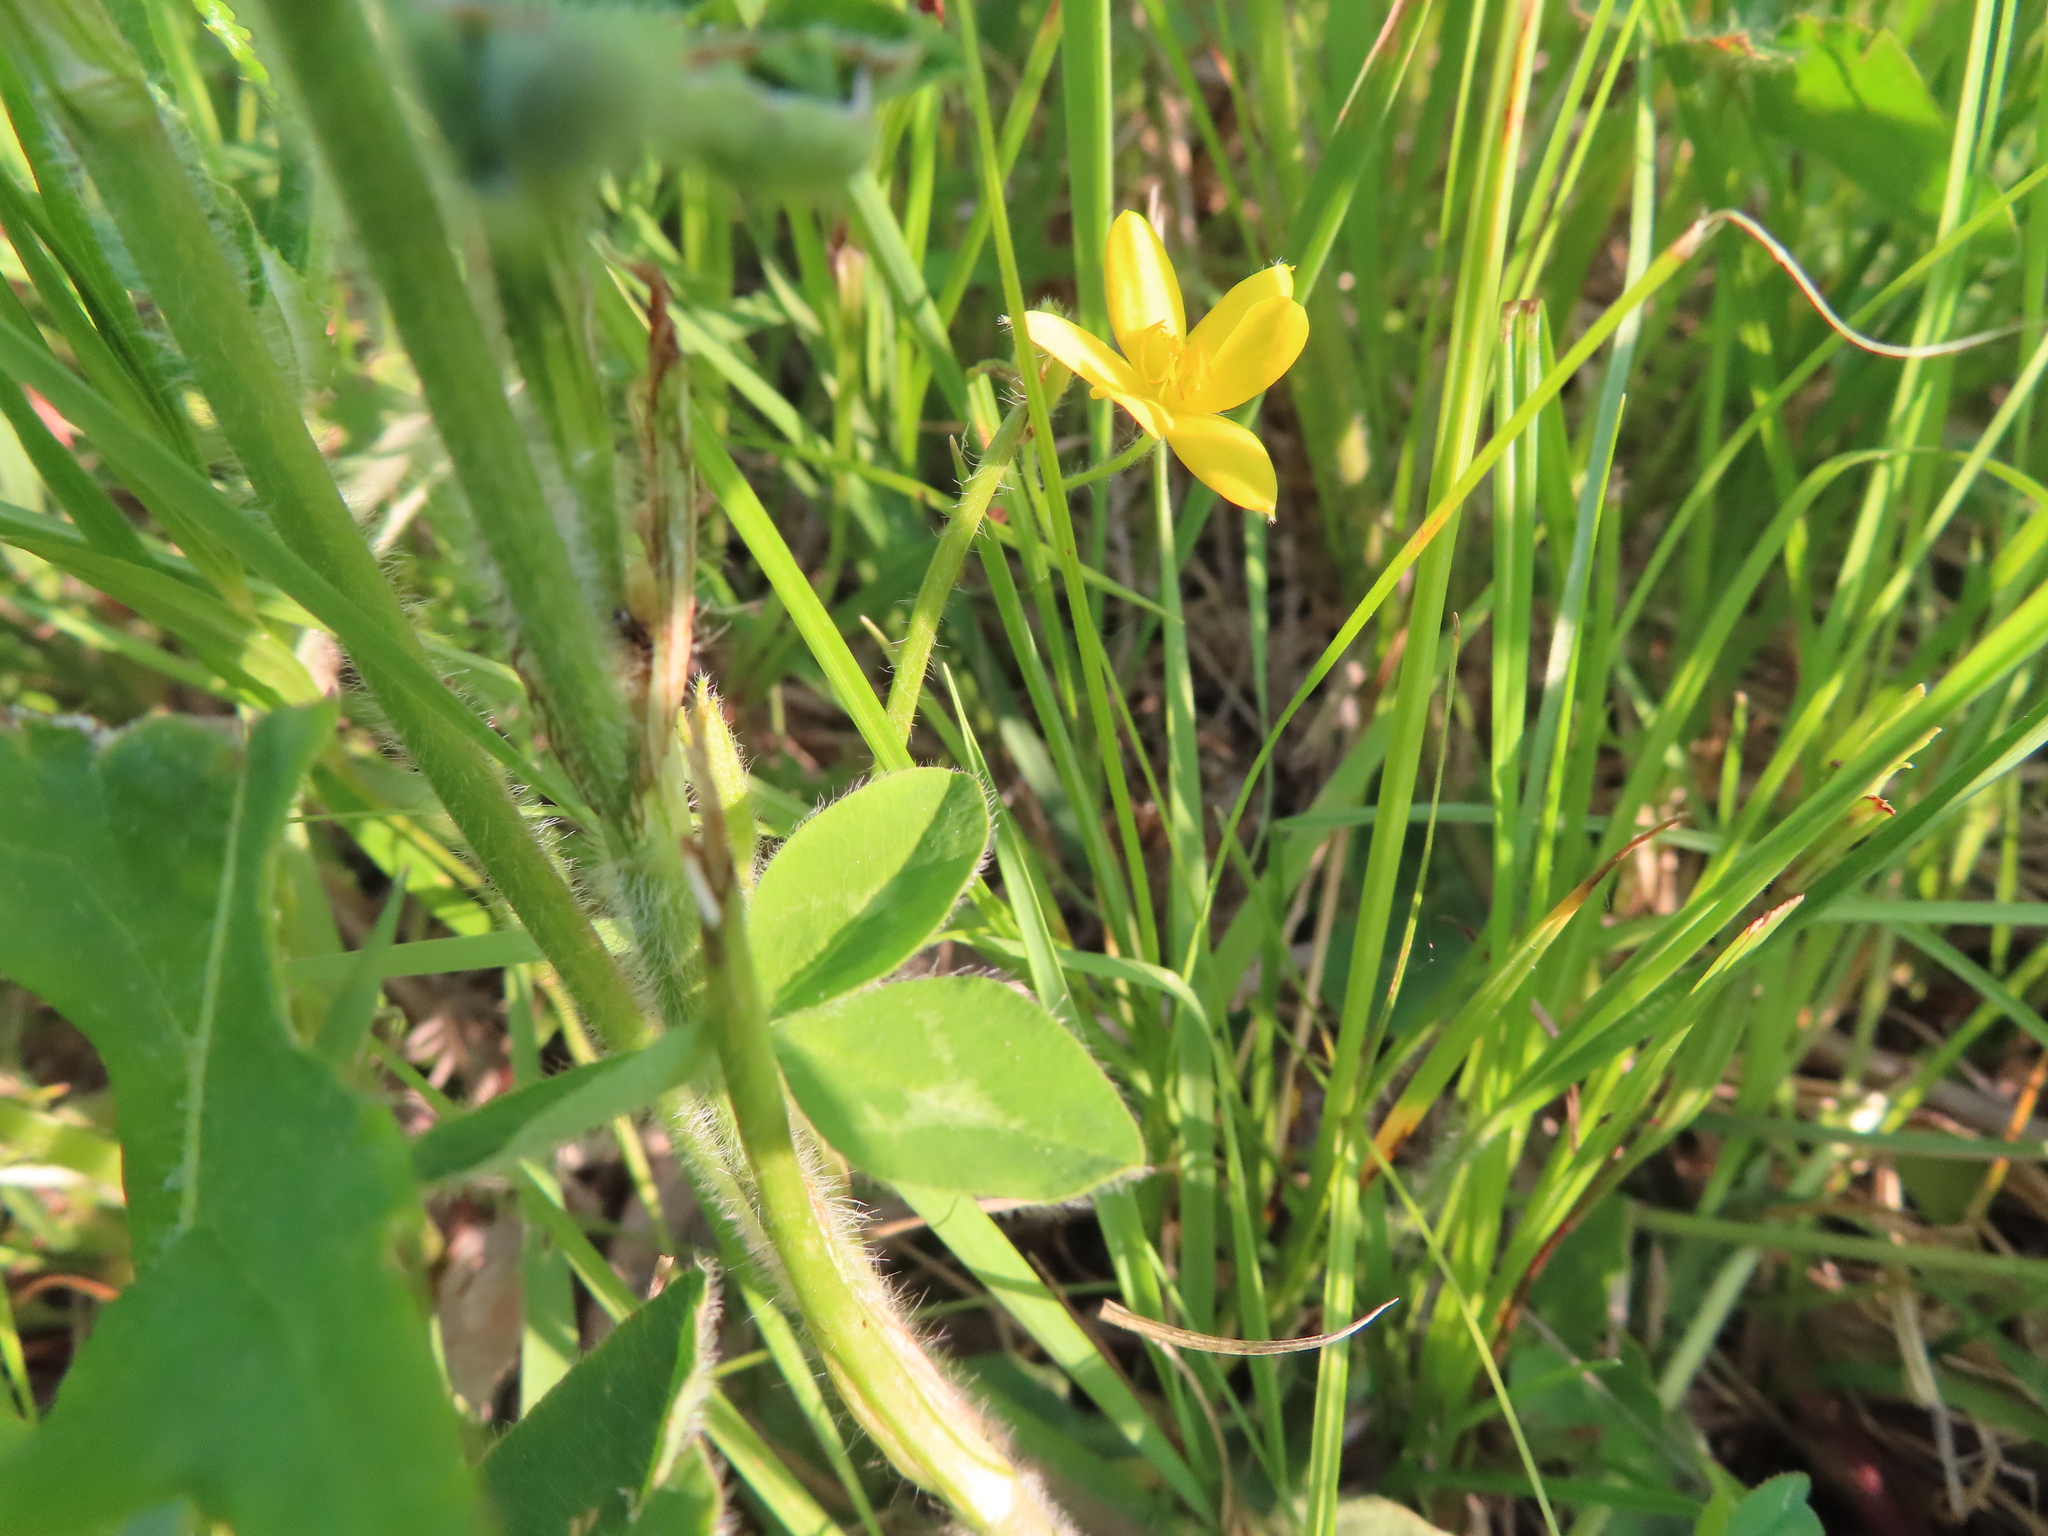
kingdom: Plantae
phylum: Tracheophyta
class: Liliopsida
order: Asparagales
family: Hypoxidaceae
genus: Hypoxis
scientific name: Hypoxis hirsuta
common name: Common goldstar
